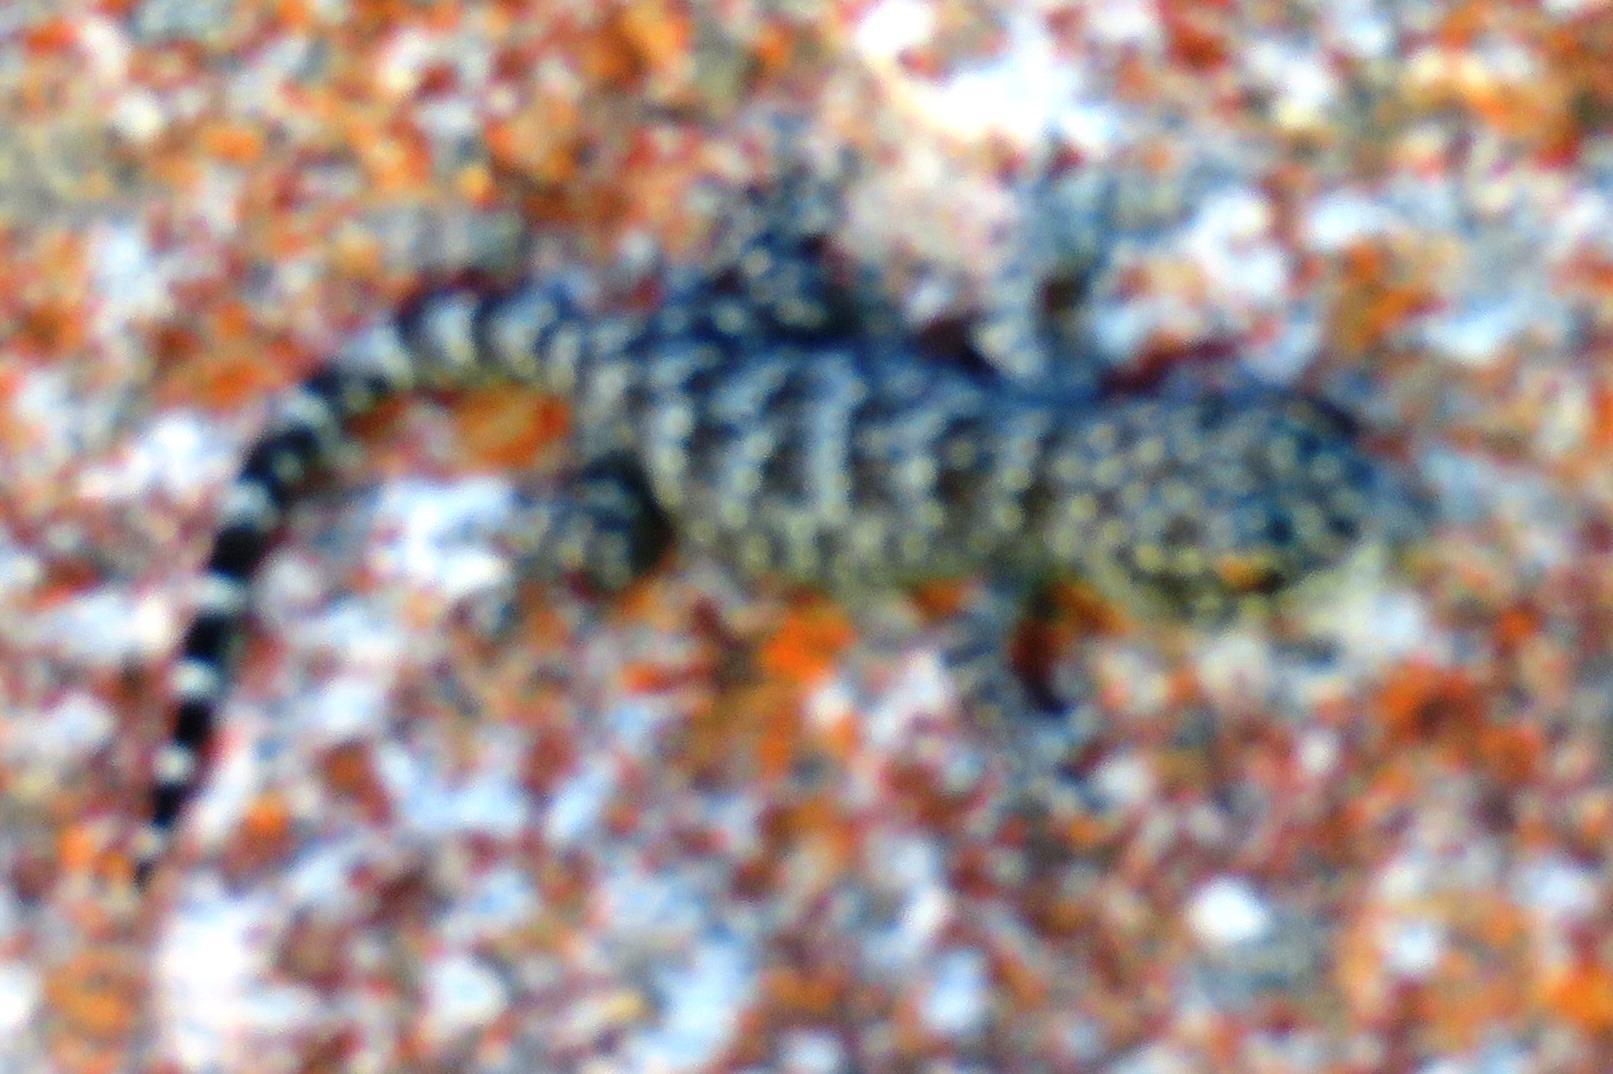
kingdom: Animalia
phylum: Chordata
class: Squamata
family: Gekkonidae
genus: Goggia
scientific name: Goggia microlepidota
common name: Small-scaled leaf-toed lecko
